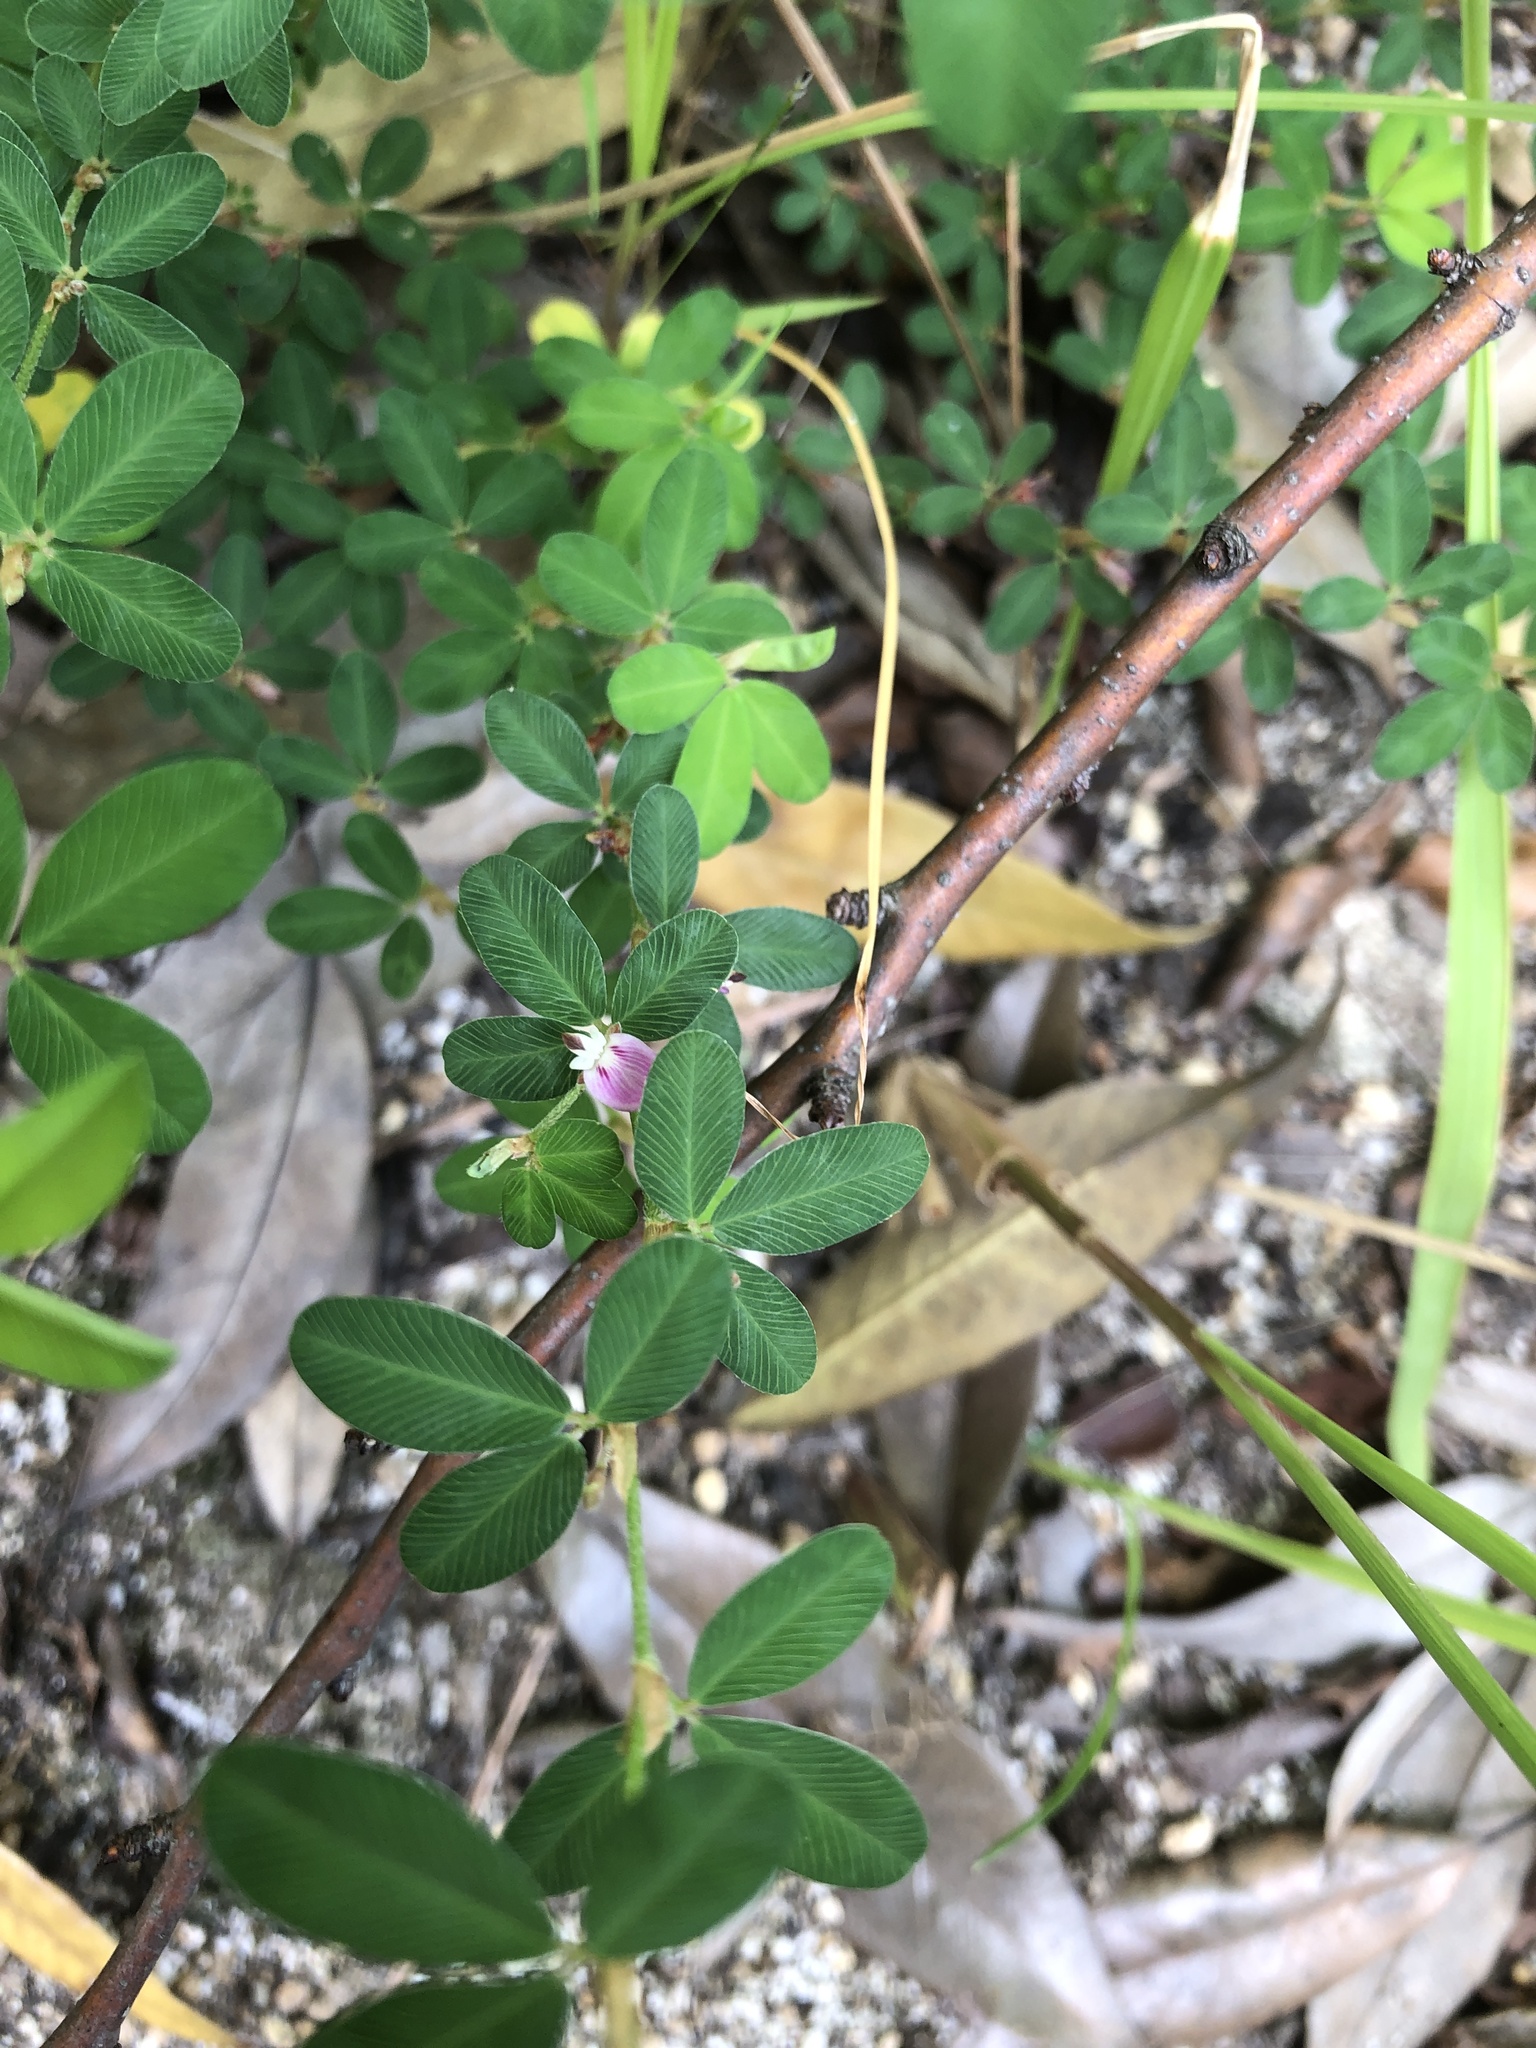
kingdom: Plantae
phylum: Tracheophyta
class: Magnoliopsida
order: Fabales
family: Fabaceae
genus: Kummerowia
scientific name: Kummerowia striata
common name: Japanese clover
